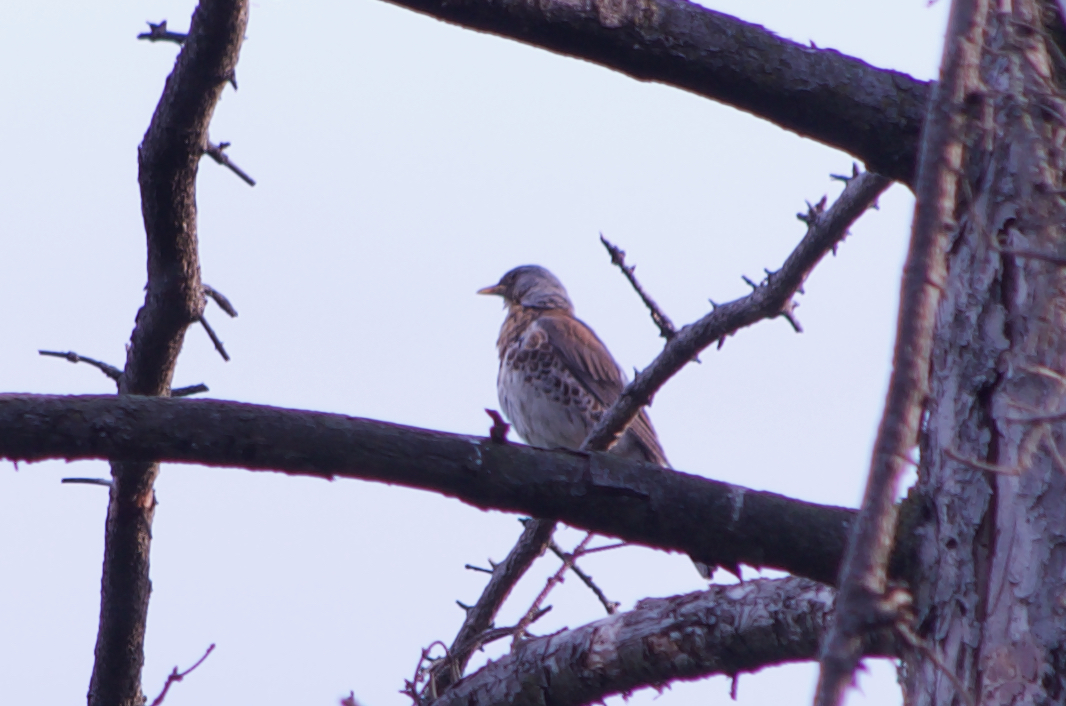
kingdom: Animalia
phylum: Chordata
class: Aves
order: Passeriformes
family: Turdidae
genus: Turdus
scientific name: Turdus pilaris
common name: Fieldfare
